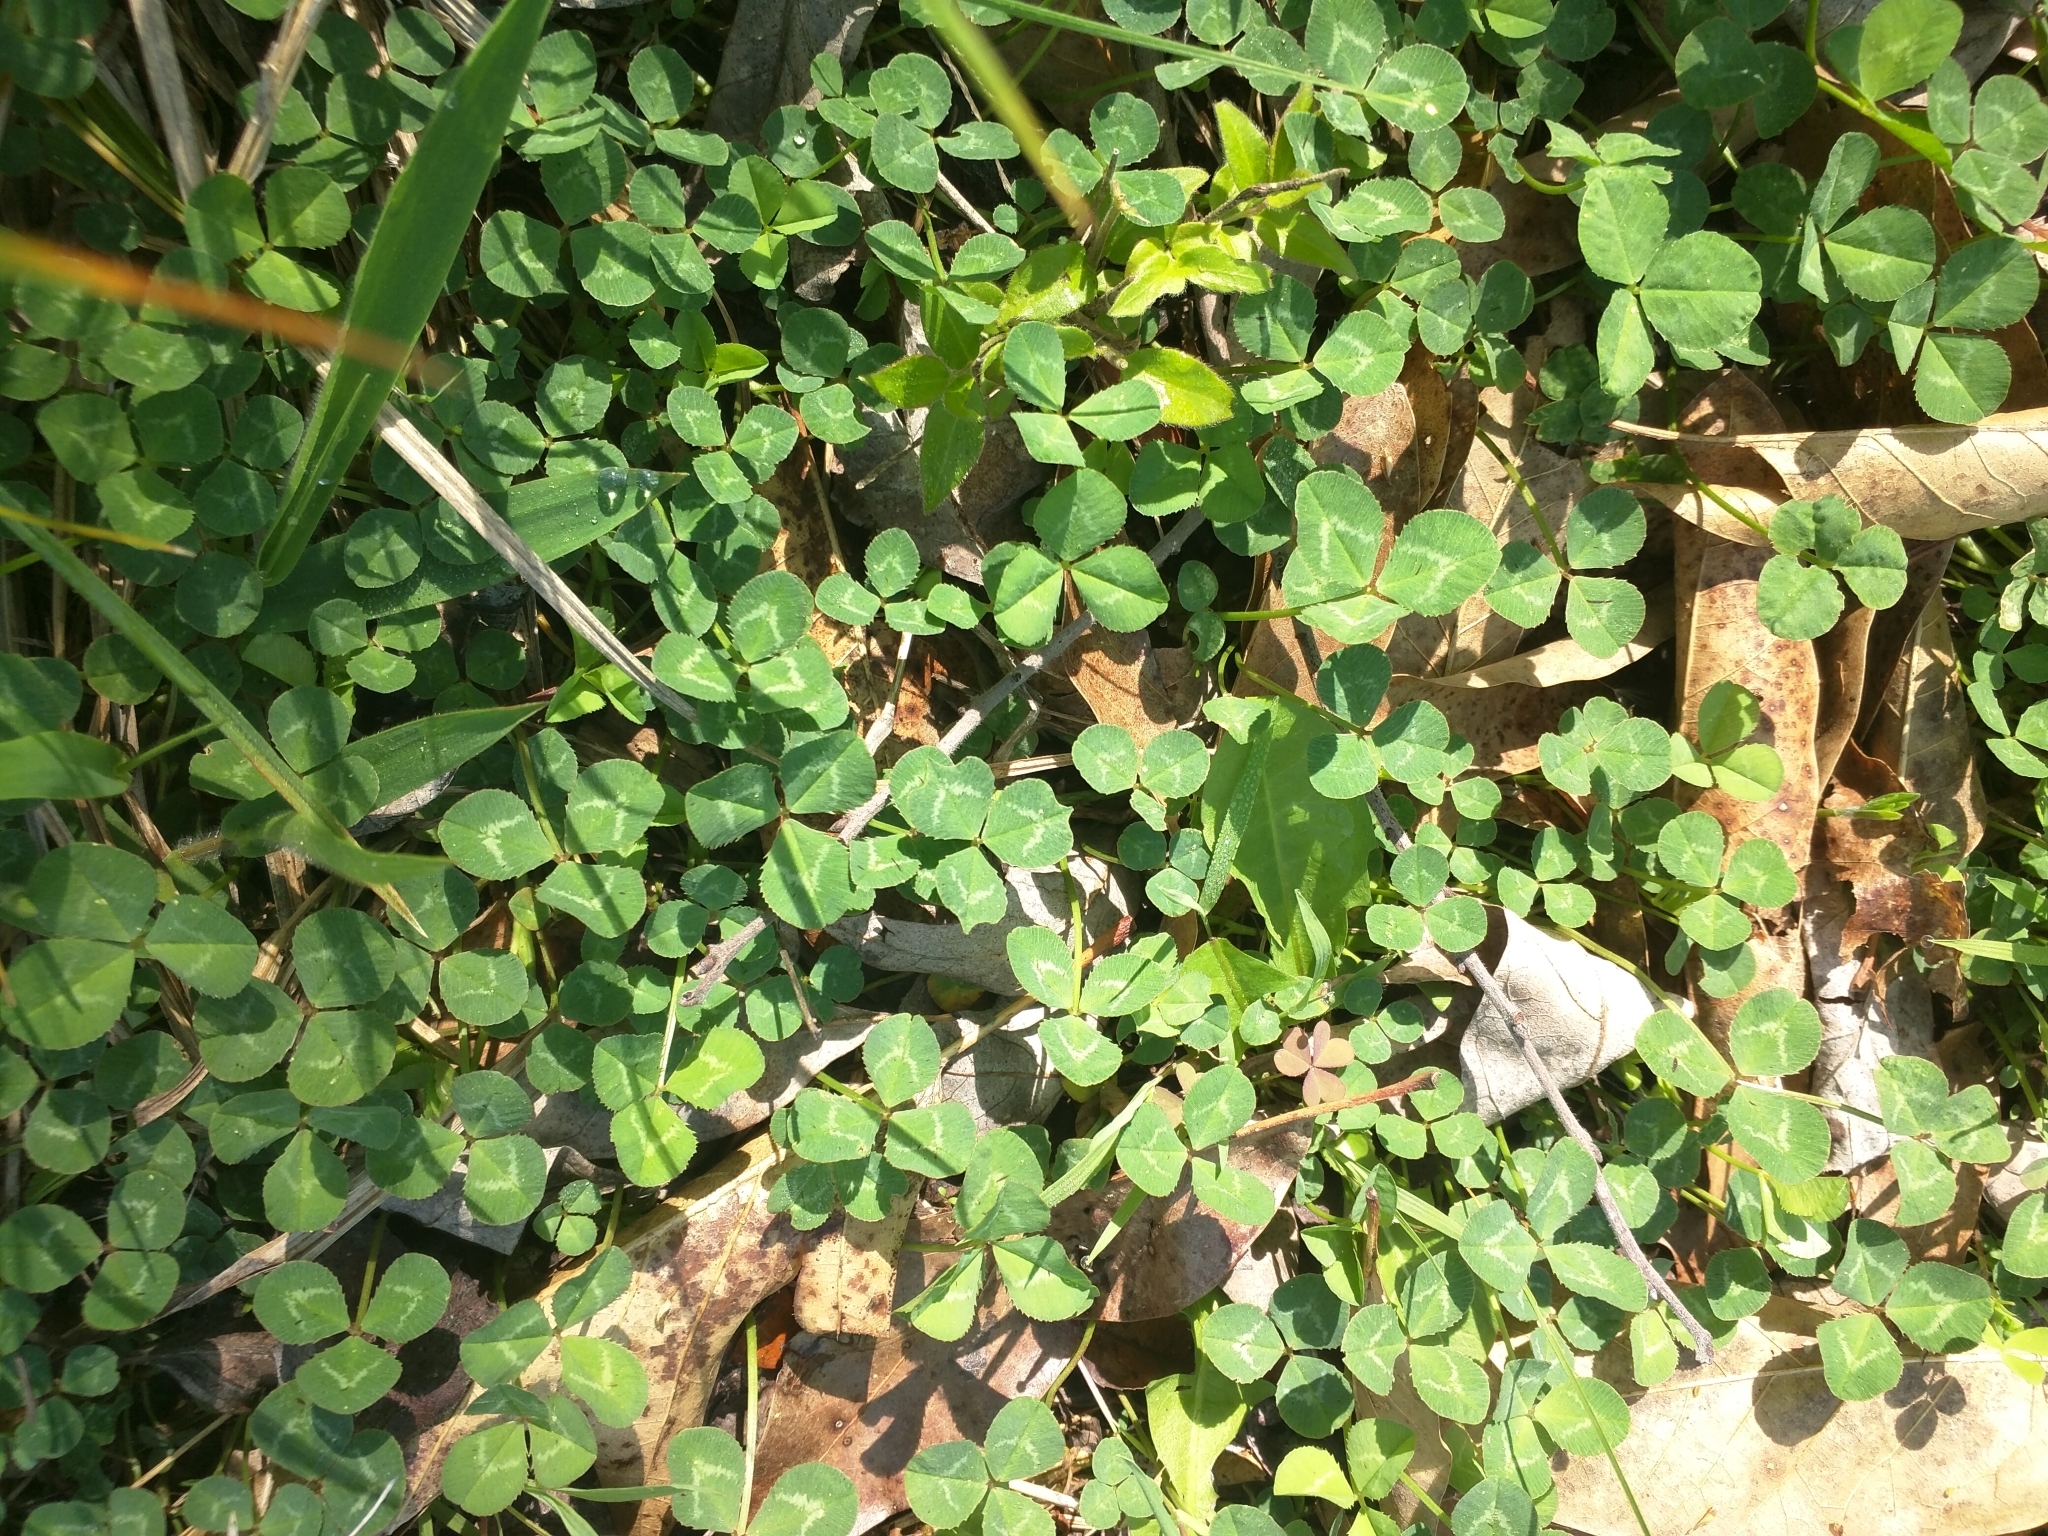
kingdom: Plantae
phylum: Tracheophyta
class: Magnoliopsida
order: Fabales
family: Fabaceae
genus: Trifolium
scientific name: Trifolium repens
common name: White clover
